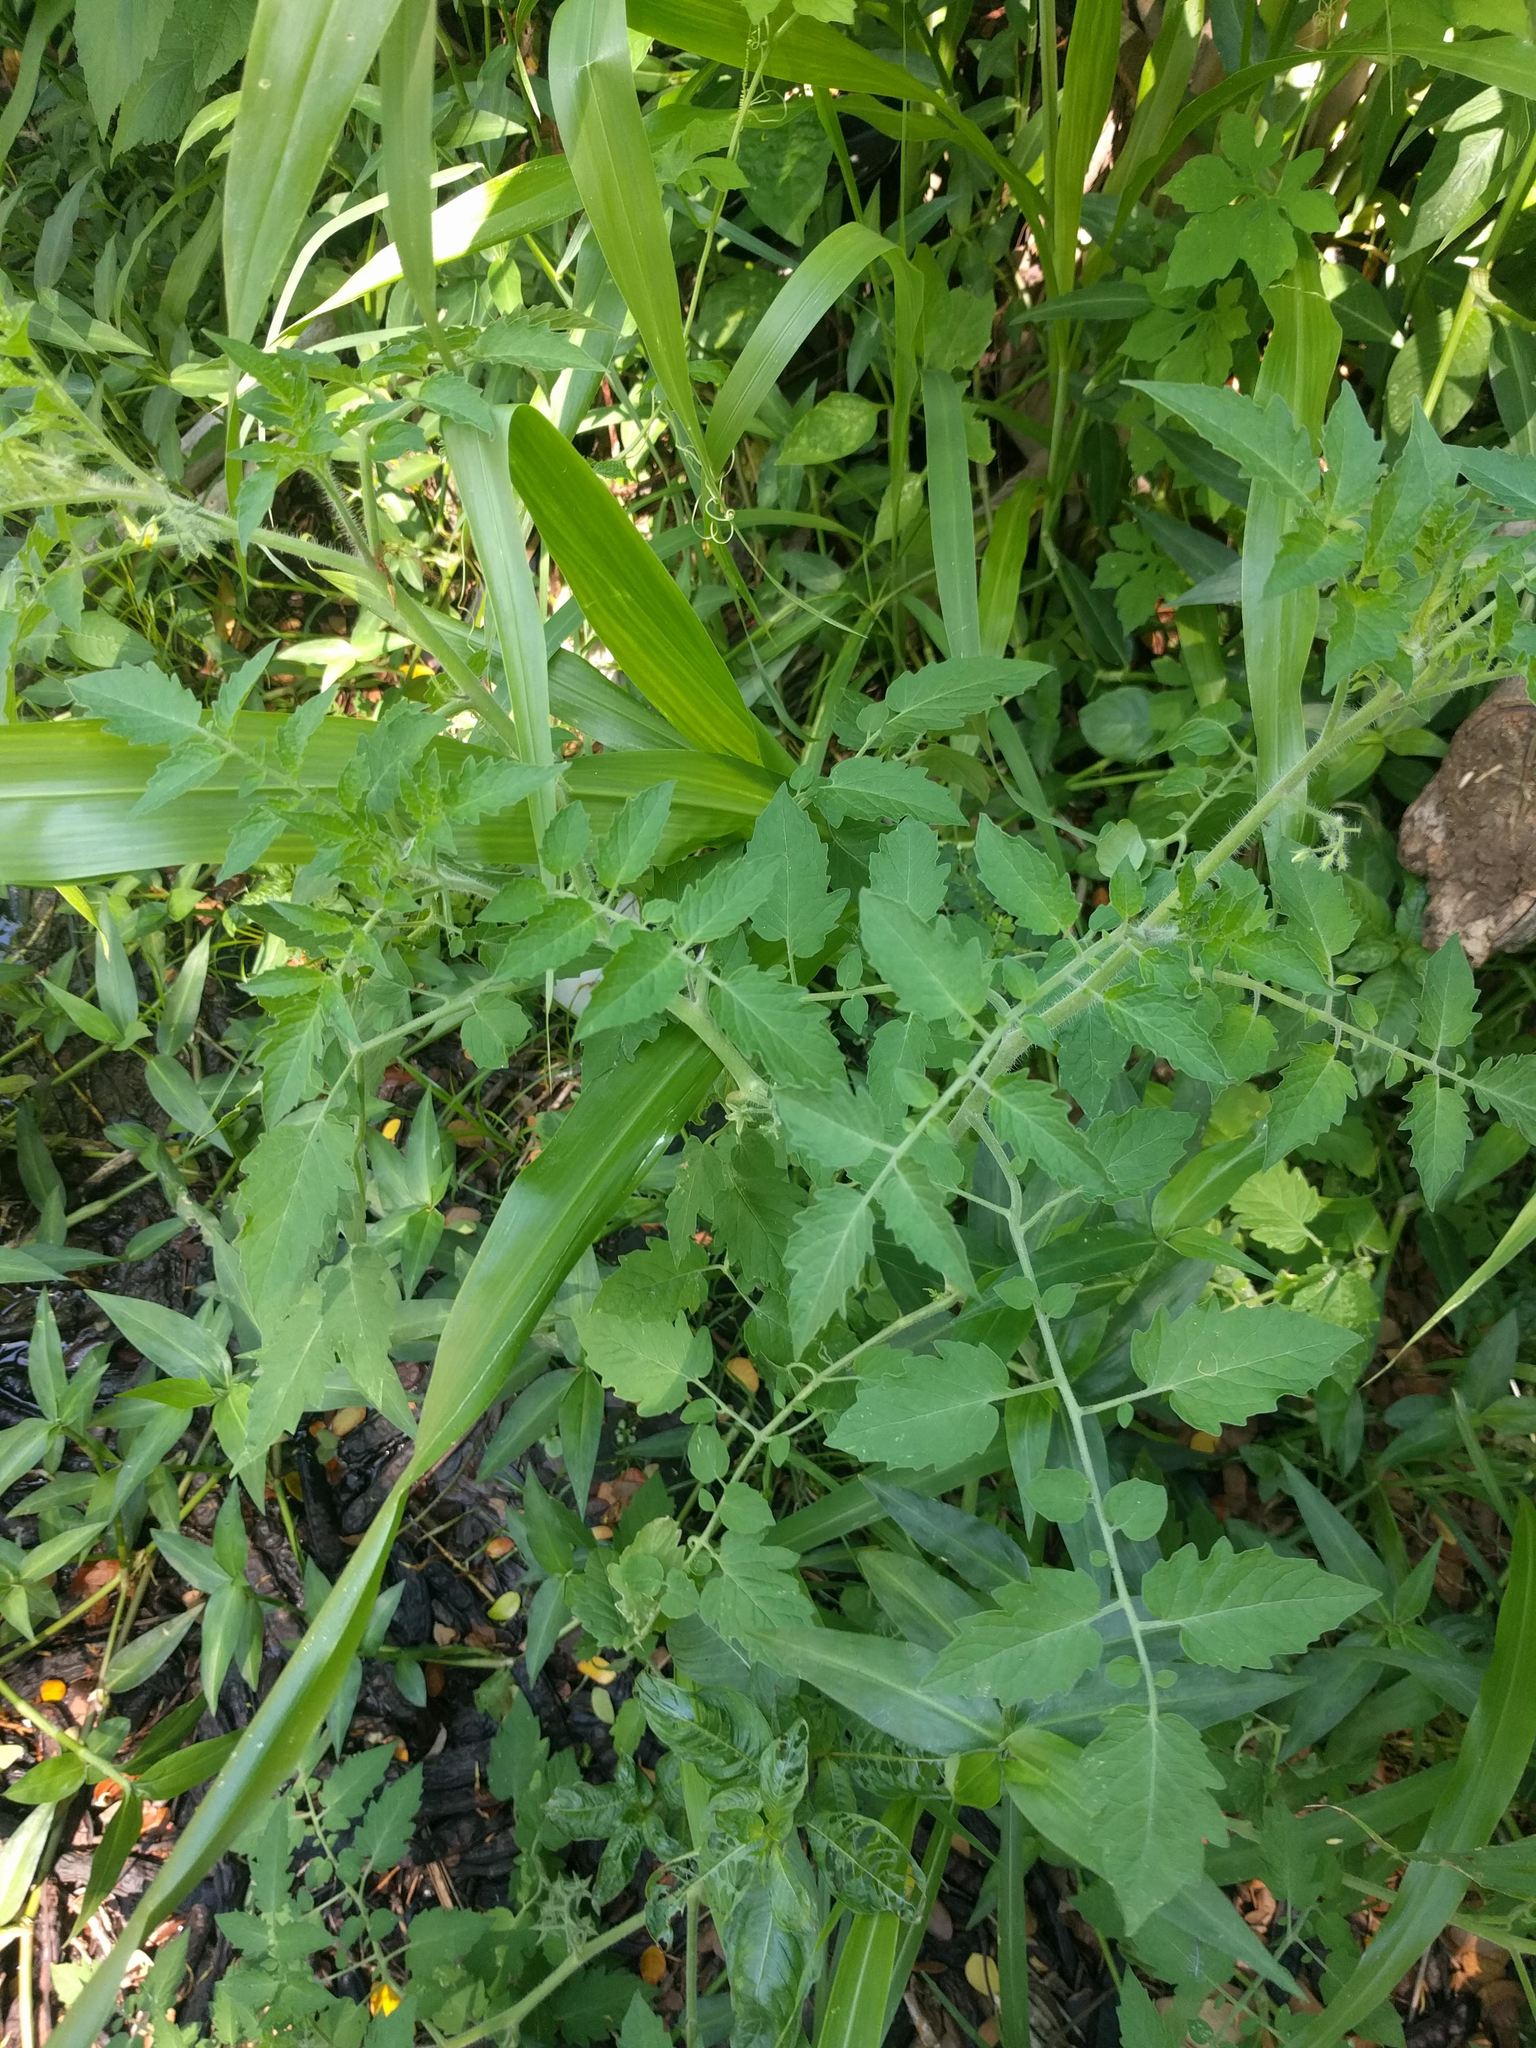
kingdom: Plantae
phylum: Tracheophyta
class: Magnoliopsida
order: Solanales
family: Solanaceae
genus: Solanum
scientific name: Solanum lycopersicum
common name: Garden tomato
